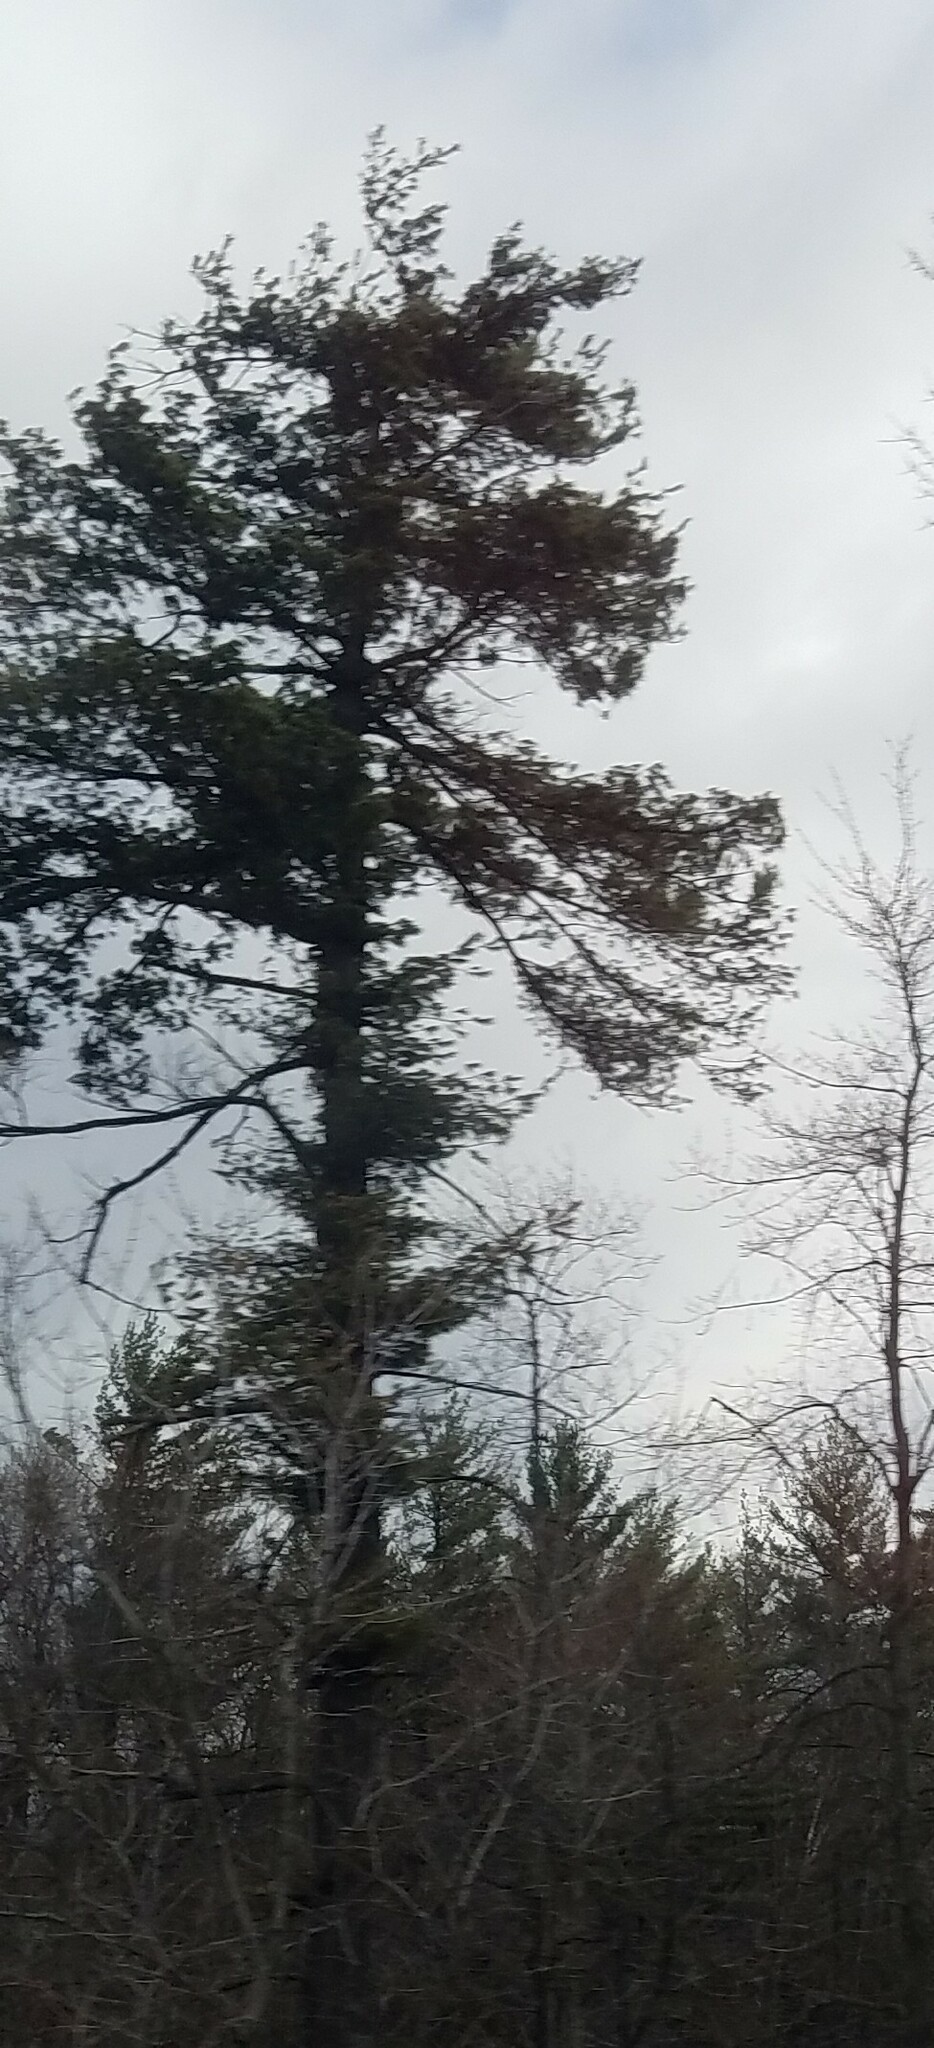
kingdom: Plantae
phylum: Tracheophyta
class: Pinopsida
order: Pinales
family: Pinaceae
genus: Pinus
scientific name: Pinus strobus
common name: Weymouth pine
